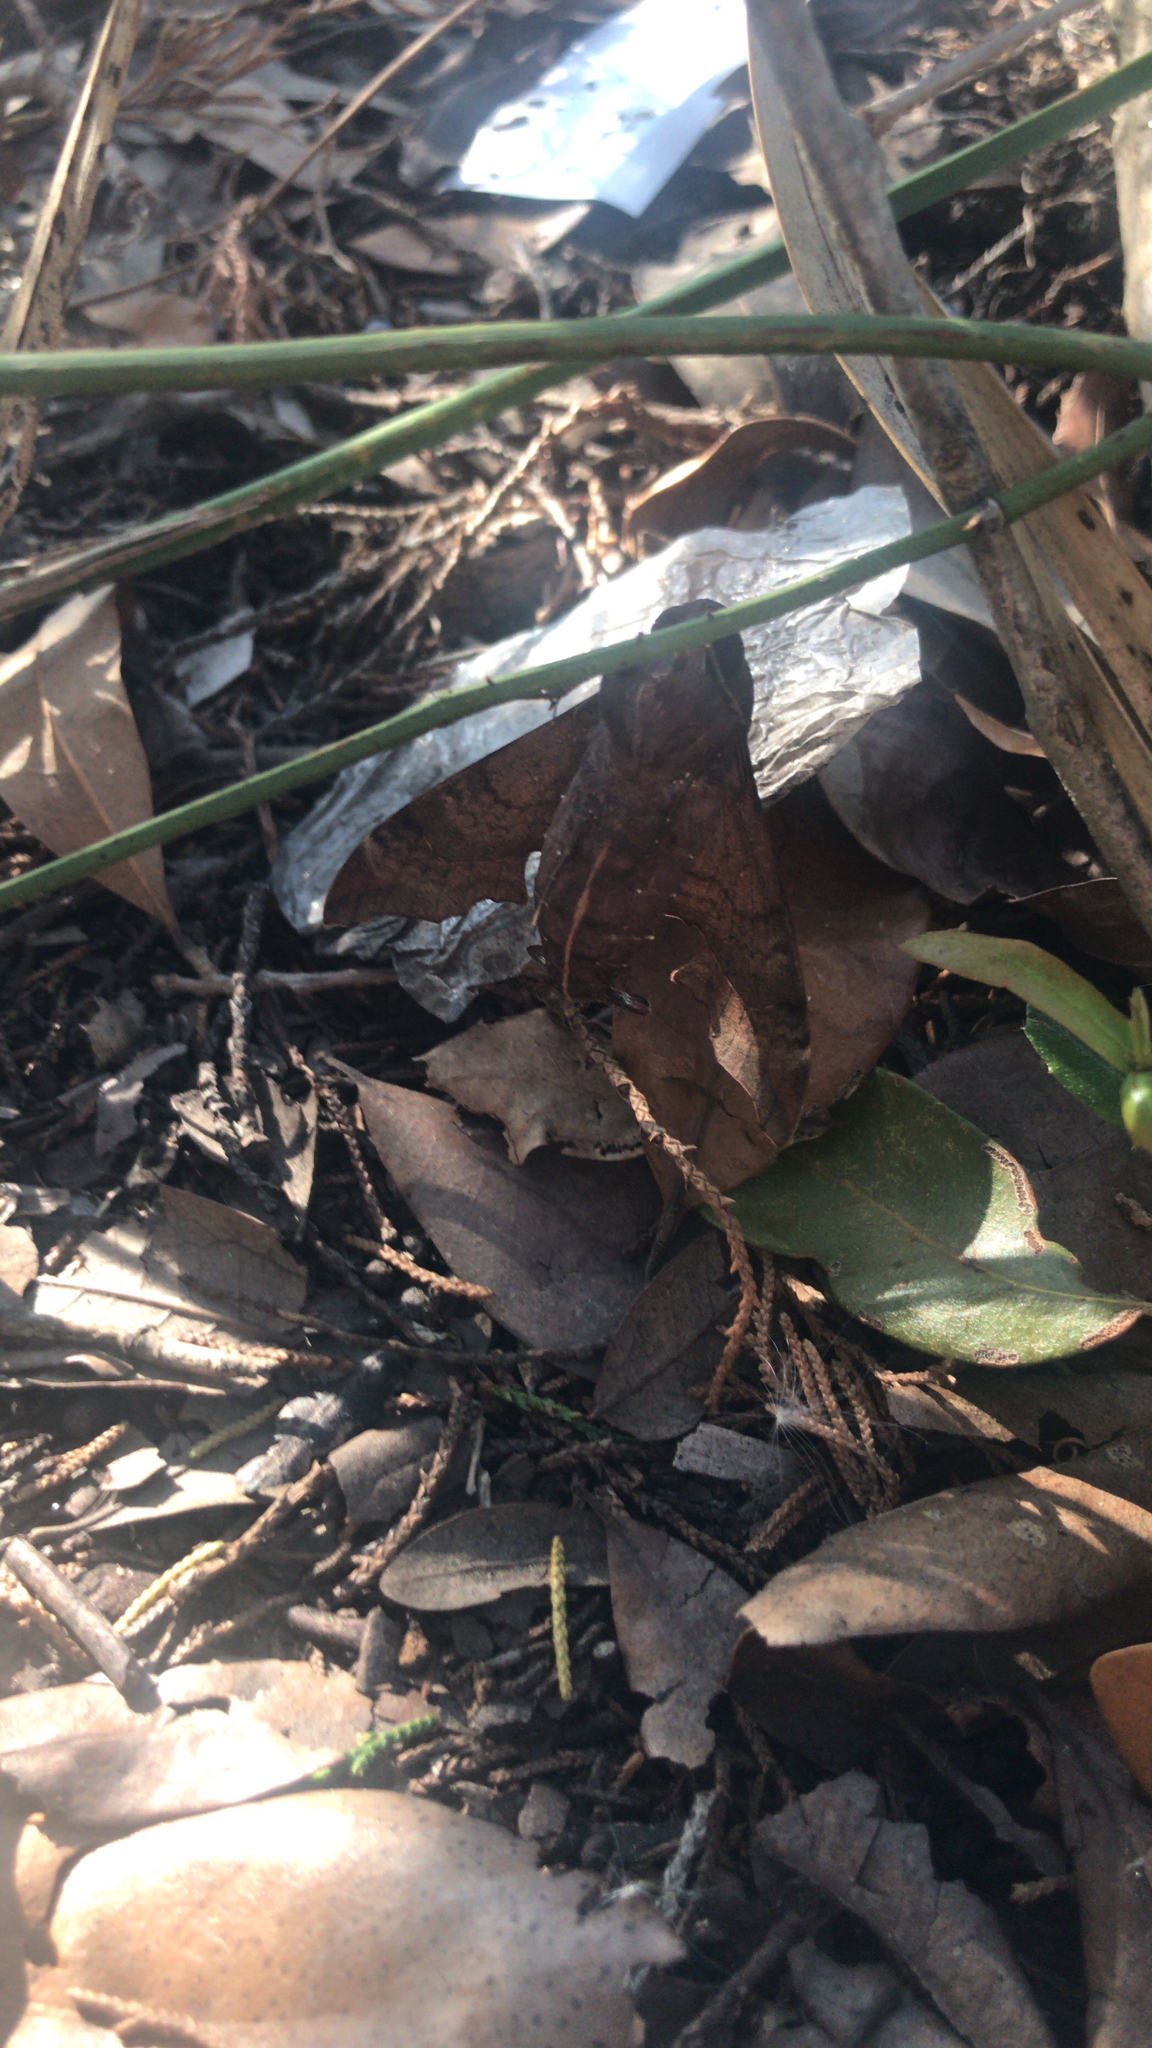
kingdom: Animalia
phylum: Arthropoda
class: Insecta
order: Lepidoptera
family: Sphingidae
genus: Enyo
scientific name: Enyo lugubris
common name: Mournful sphinx
